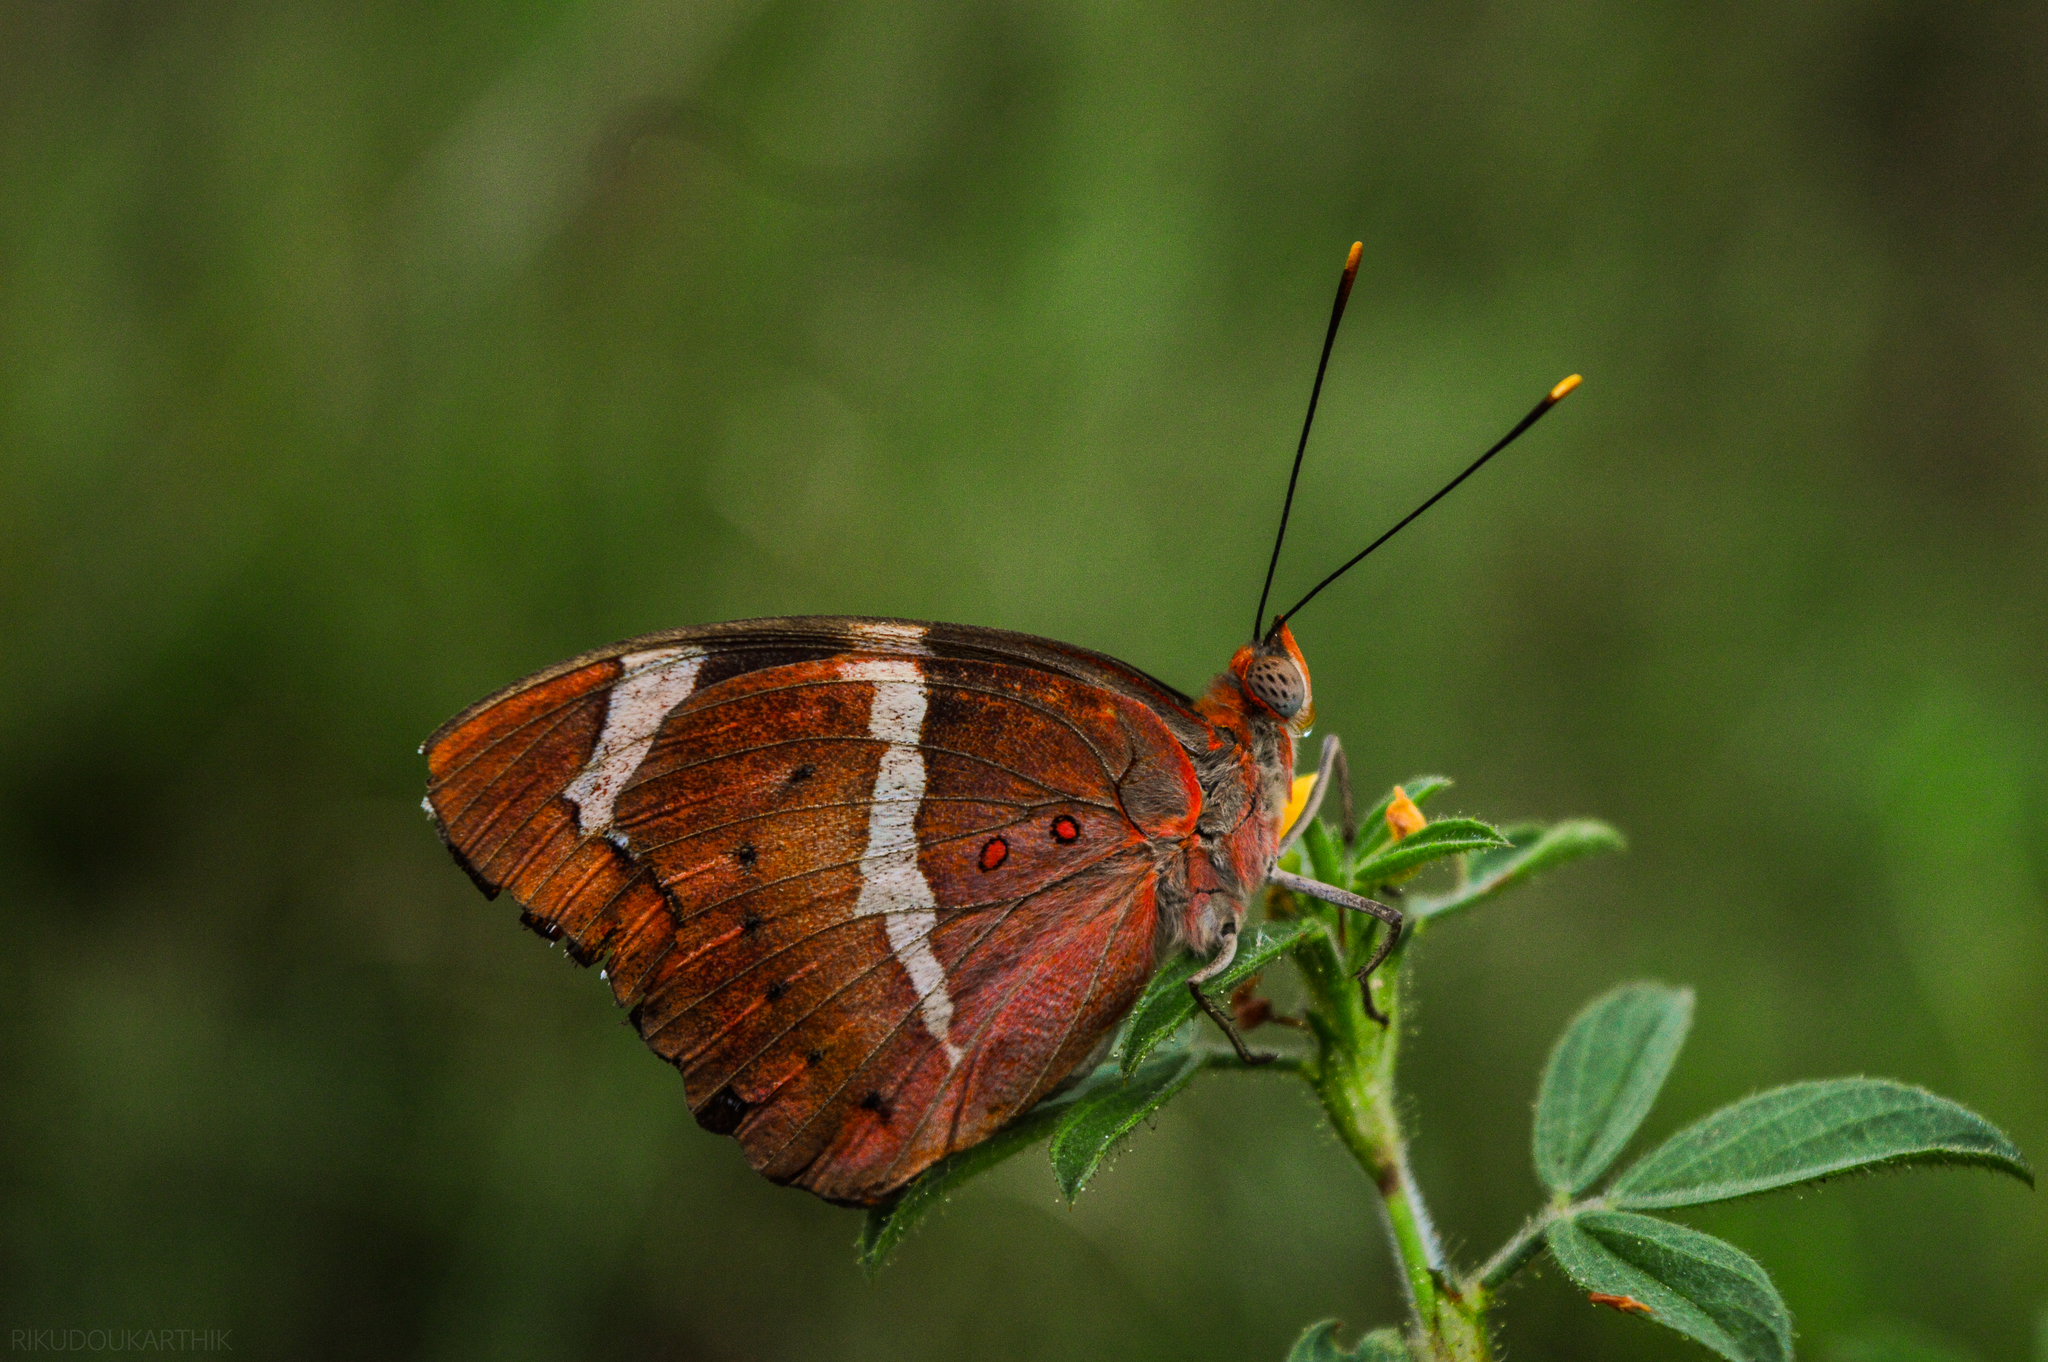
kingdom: Animalia
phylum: Arthropoda
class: Insecta
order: Lepidoptera
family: Nymphalidae
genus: Euthalia
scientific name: Euthalia nais
